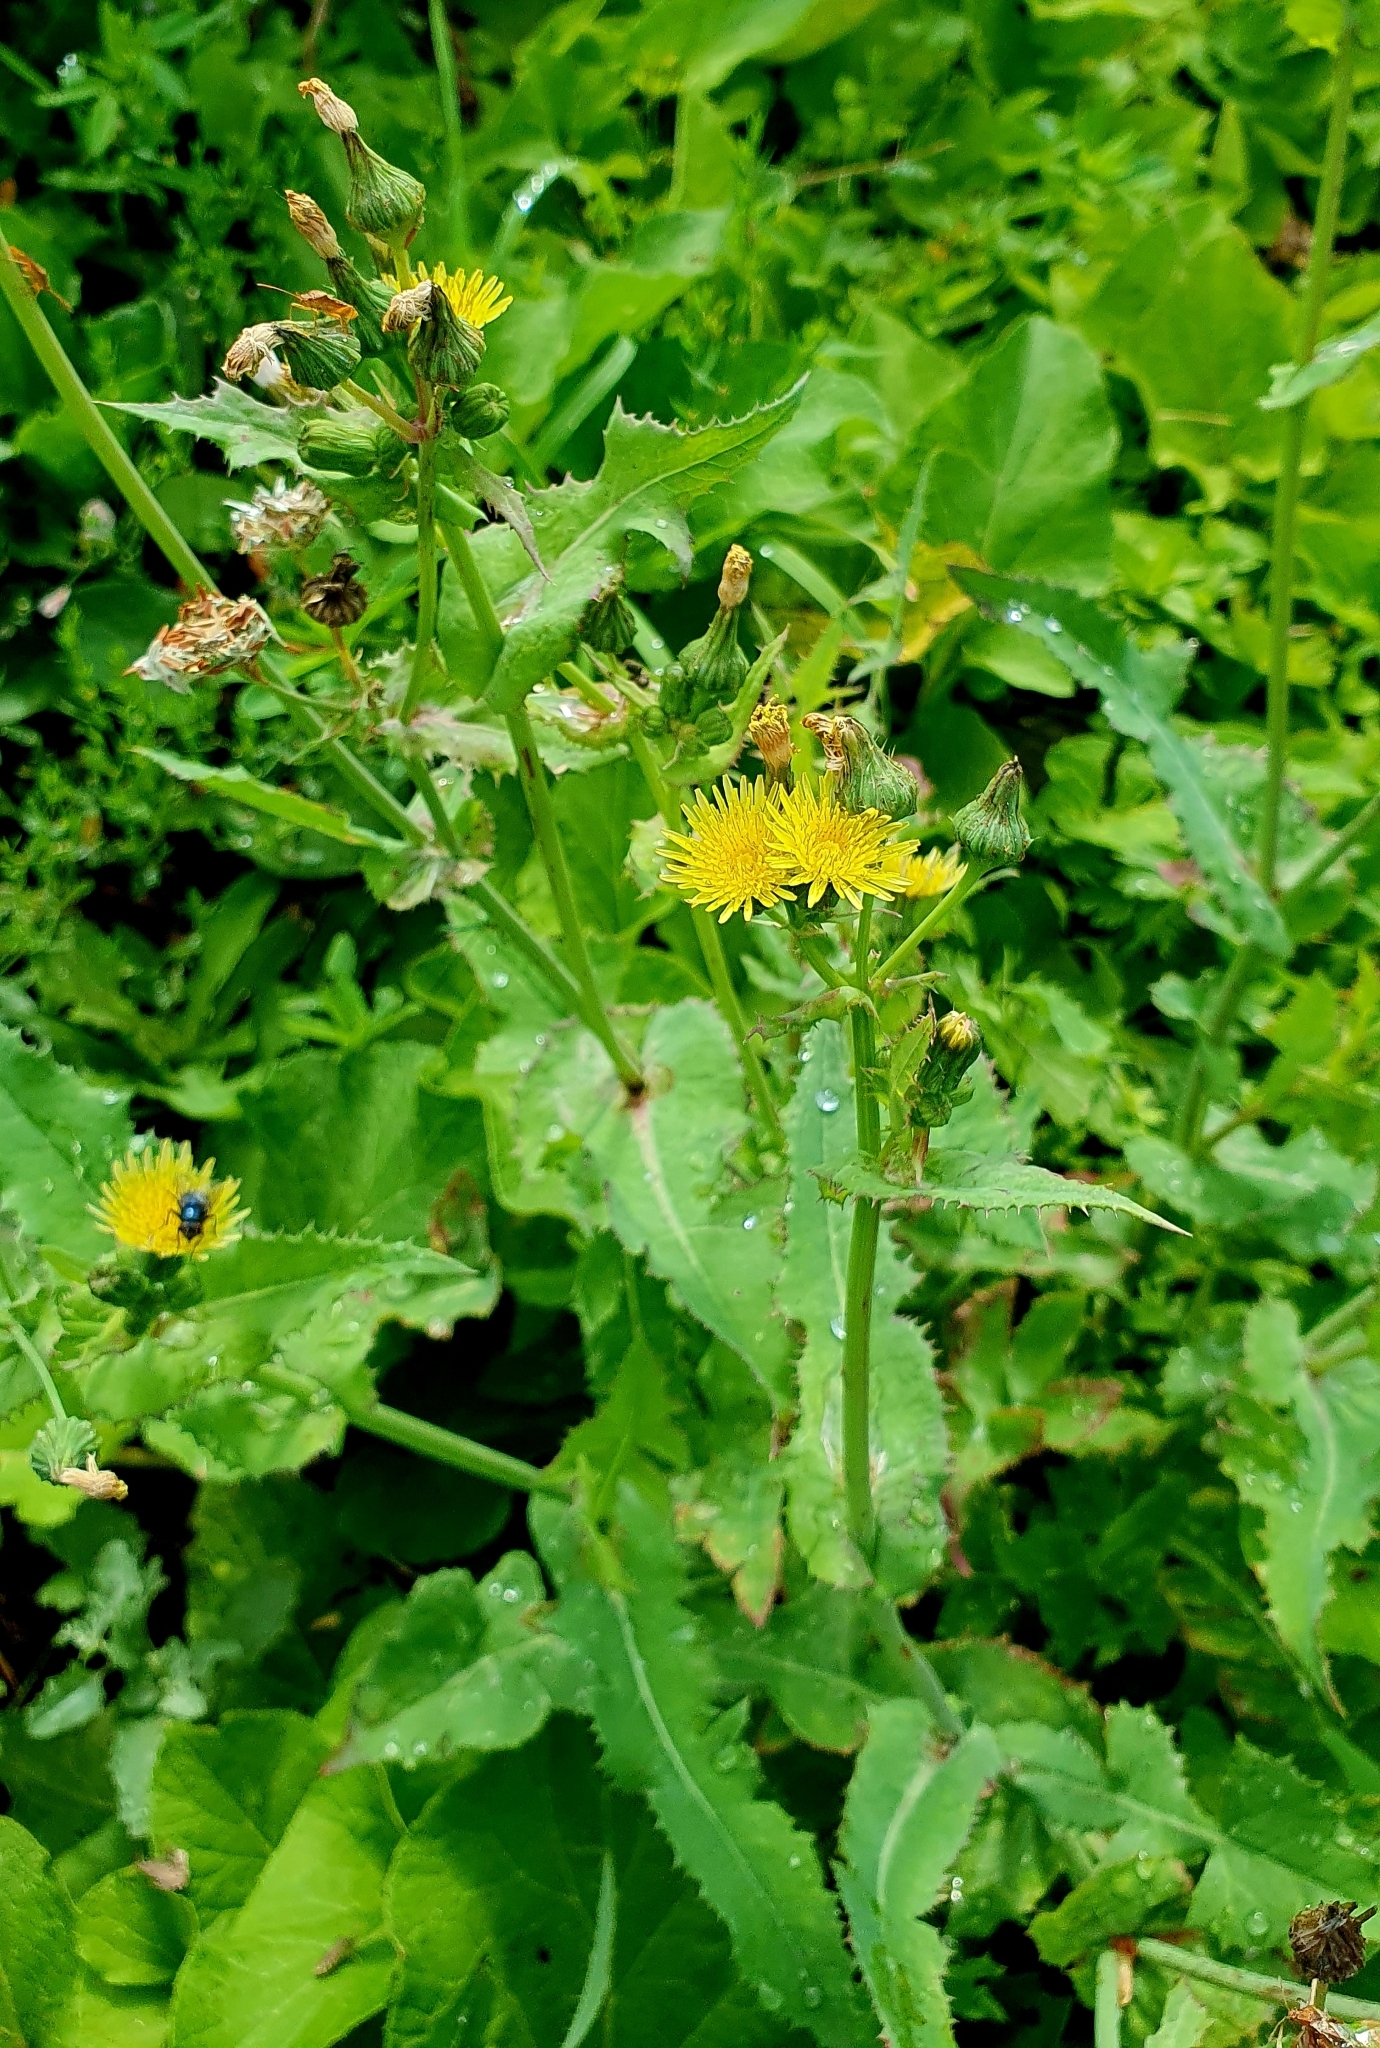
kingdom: Plantae
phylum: Tracheophyta
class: Magnoliopsida
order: Asterales
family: Asteraceae
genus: Sonchus
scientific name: Sonchus oleraceus
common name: Common sowthistle
